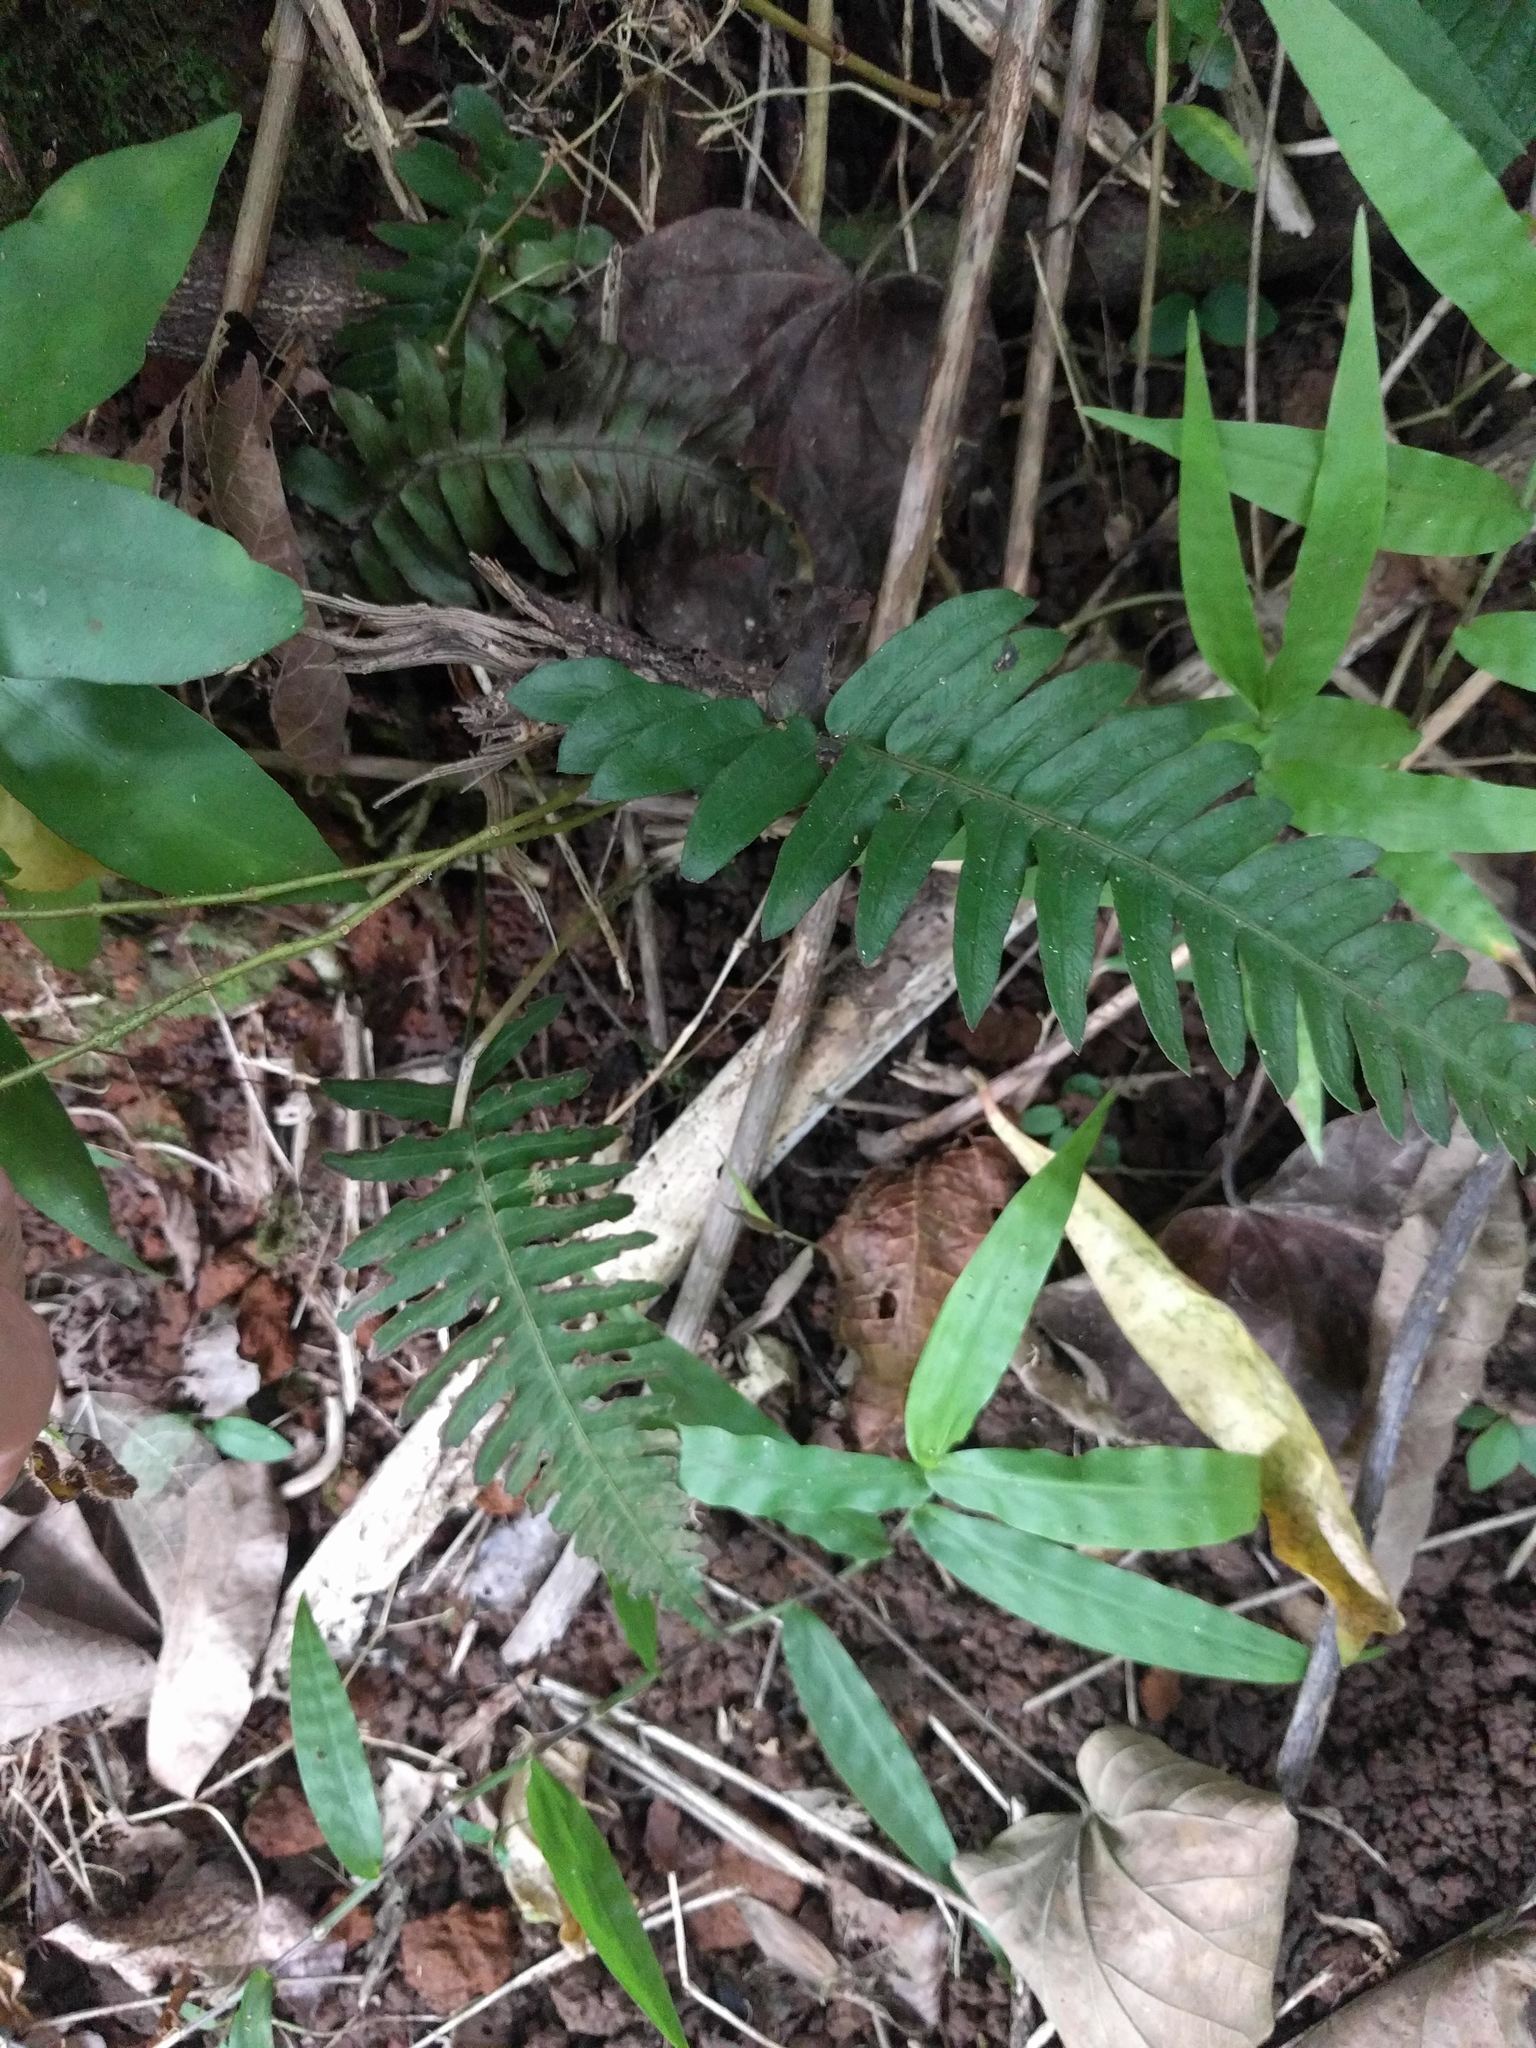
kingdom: Plantae
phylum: Tracheophyta
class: Polypodiopsida
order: Polypodiales
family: Blechnaceae
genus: Blechnum
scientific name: Blechnum appendiculatum
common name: Palm fern
